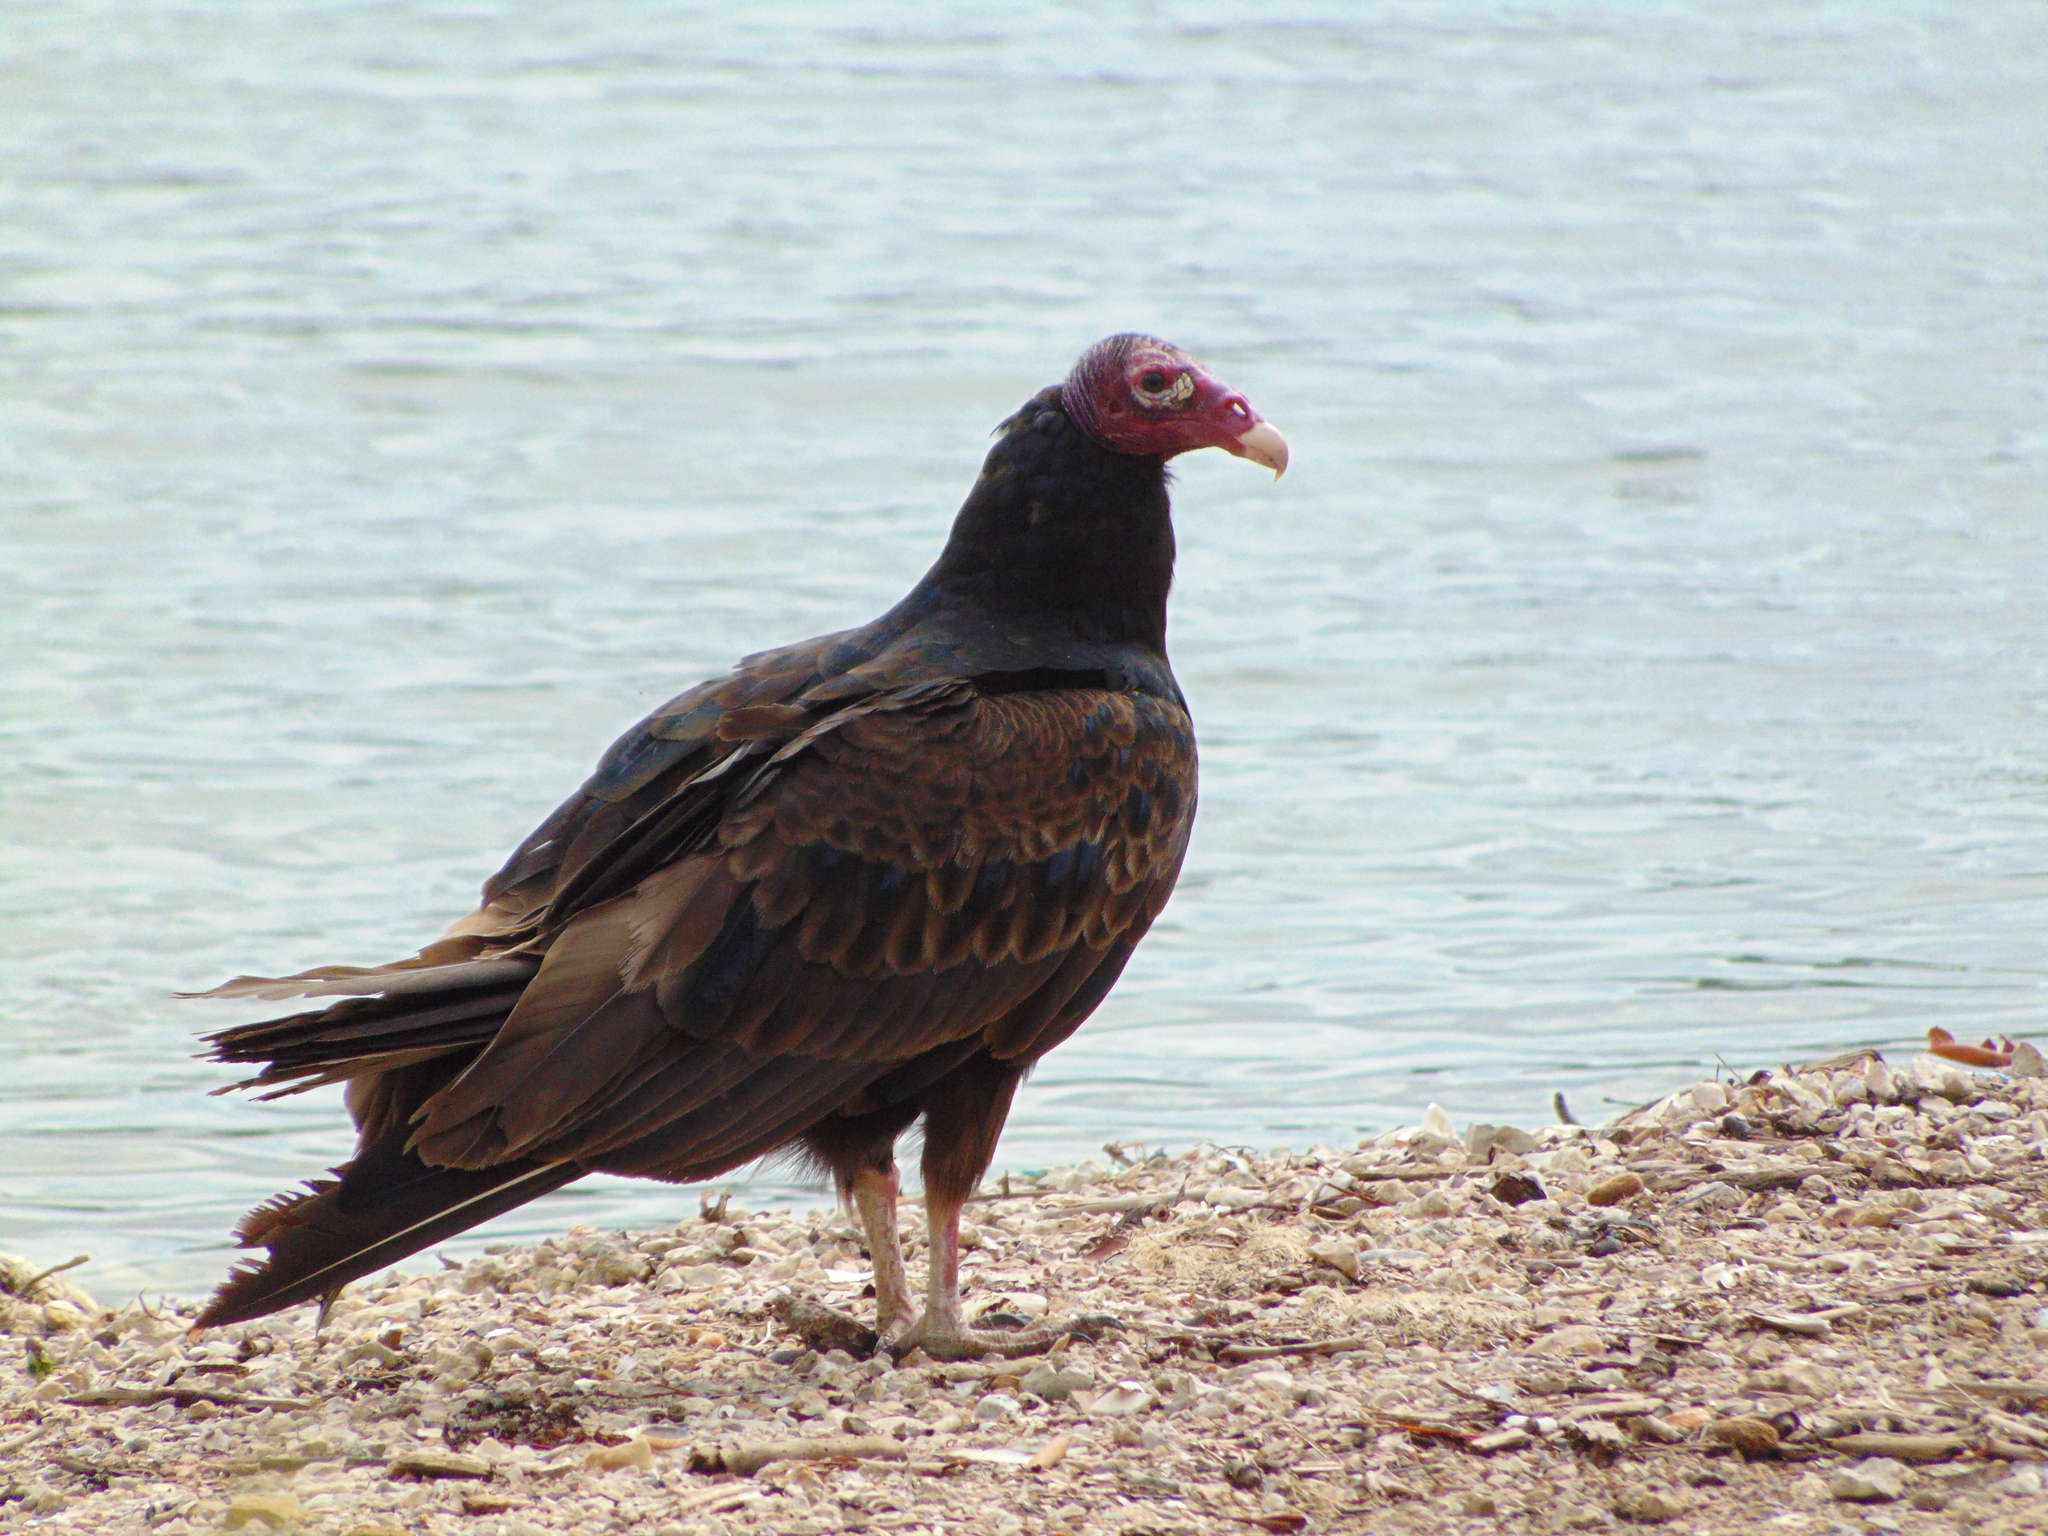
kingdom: Animalia
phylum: Chordata
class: Aves
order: Accipitriformes
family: Cathartidae
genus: Cathartes
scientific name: Cathartes aura
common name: Turkey vulture
